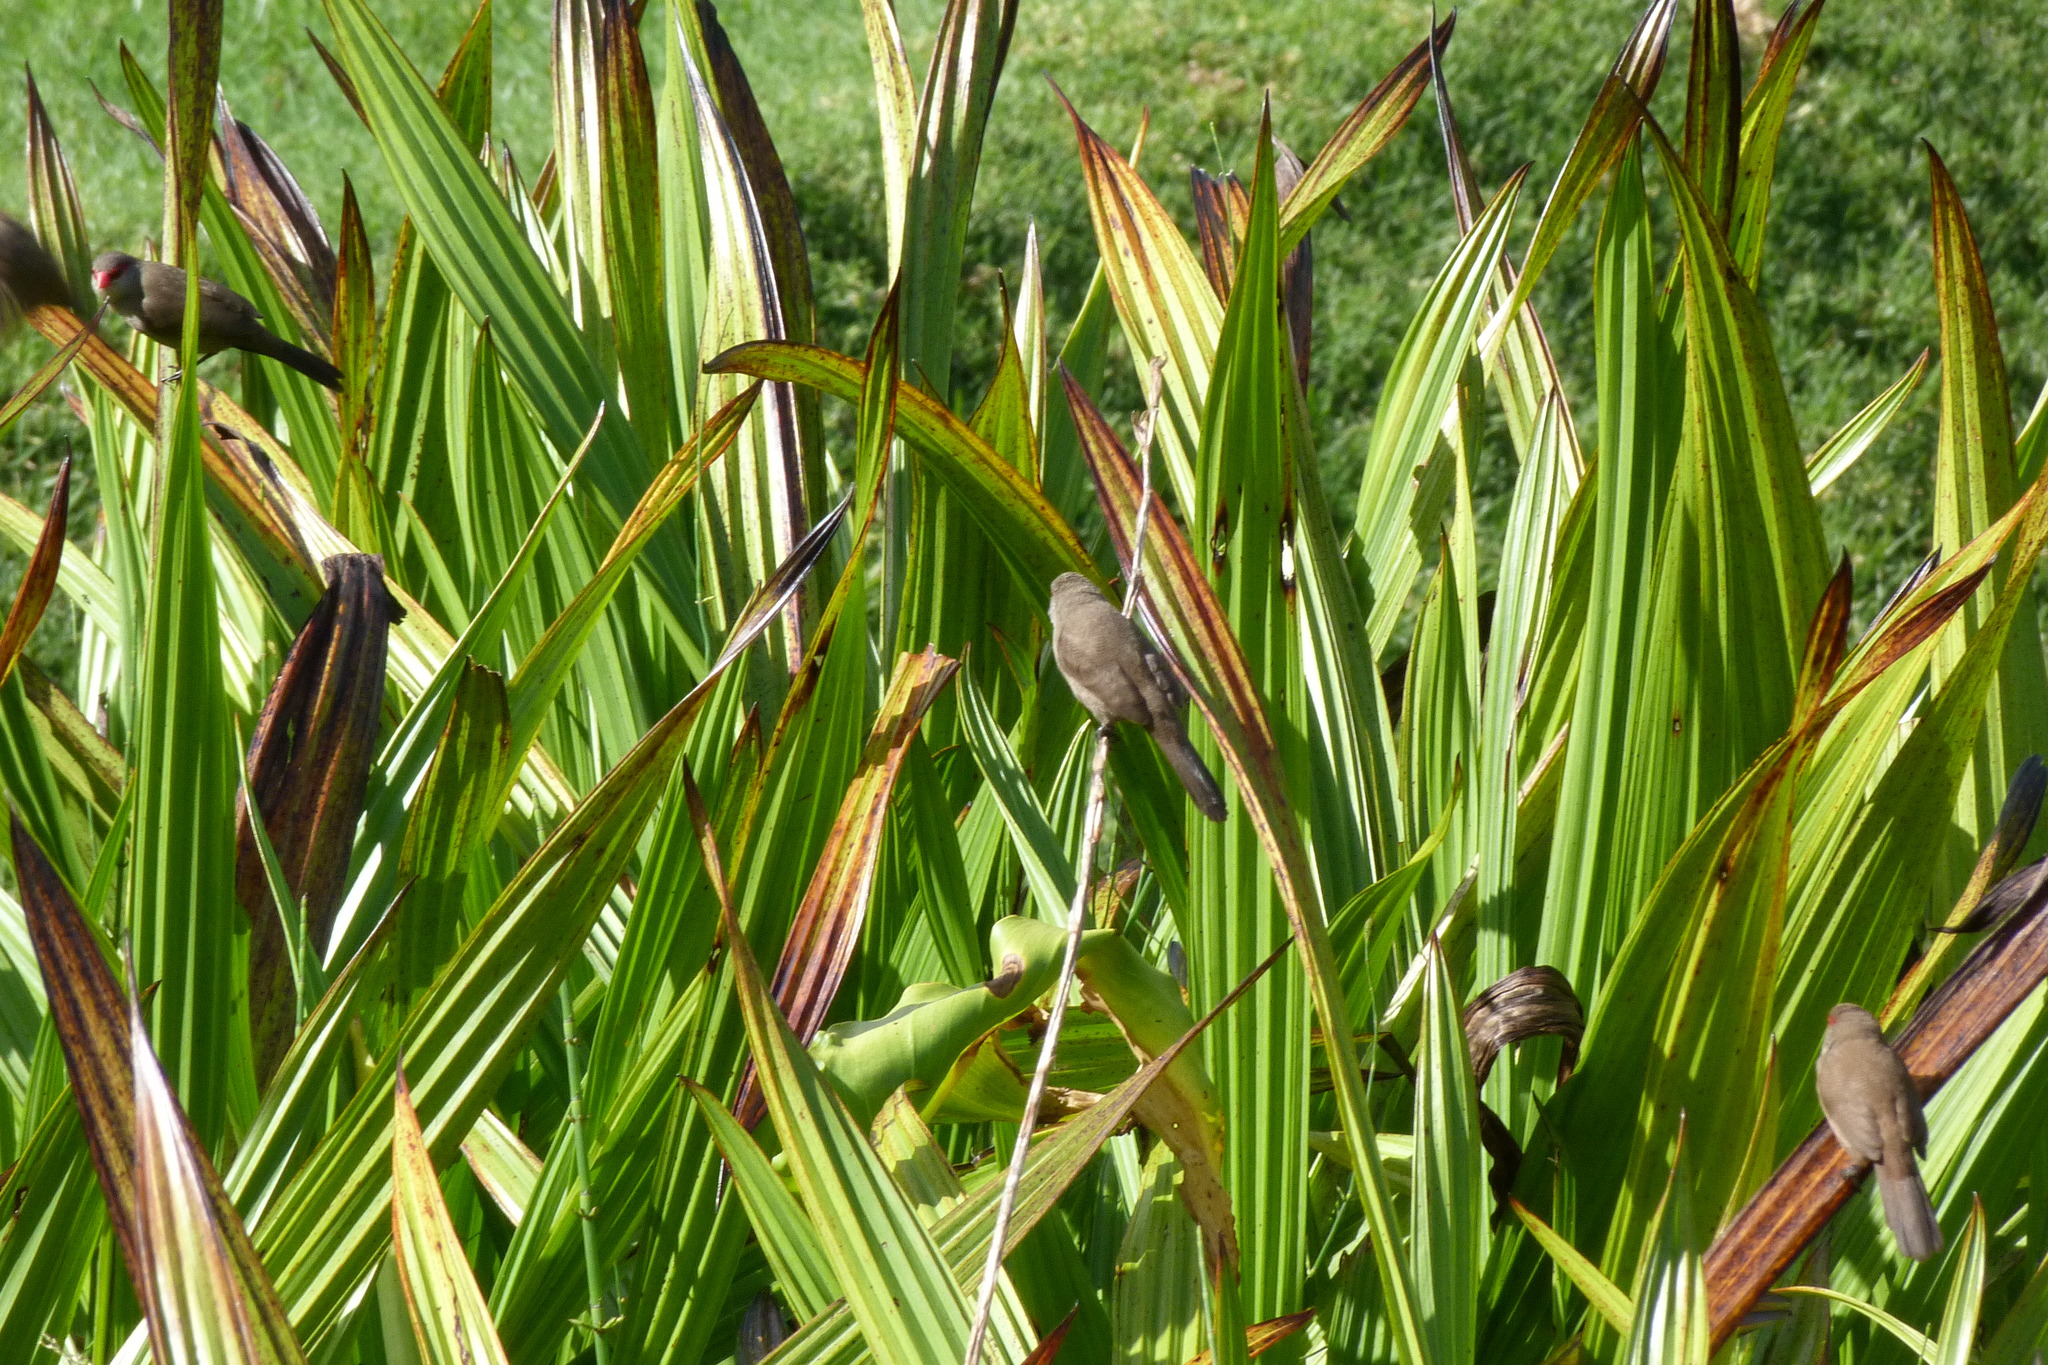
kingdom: Animalia
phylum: Chordata
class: Aves
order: Passeriformes
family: Estrildidae
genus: Estrilda
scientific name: Estrilda astrild
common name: Common waxbill
